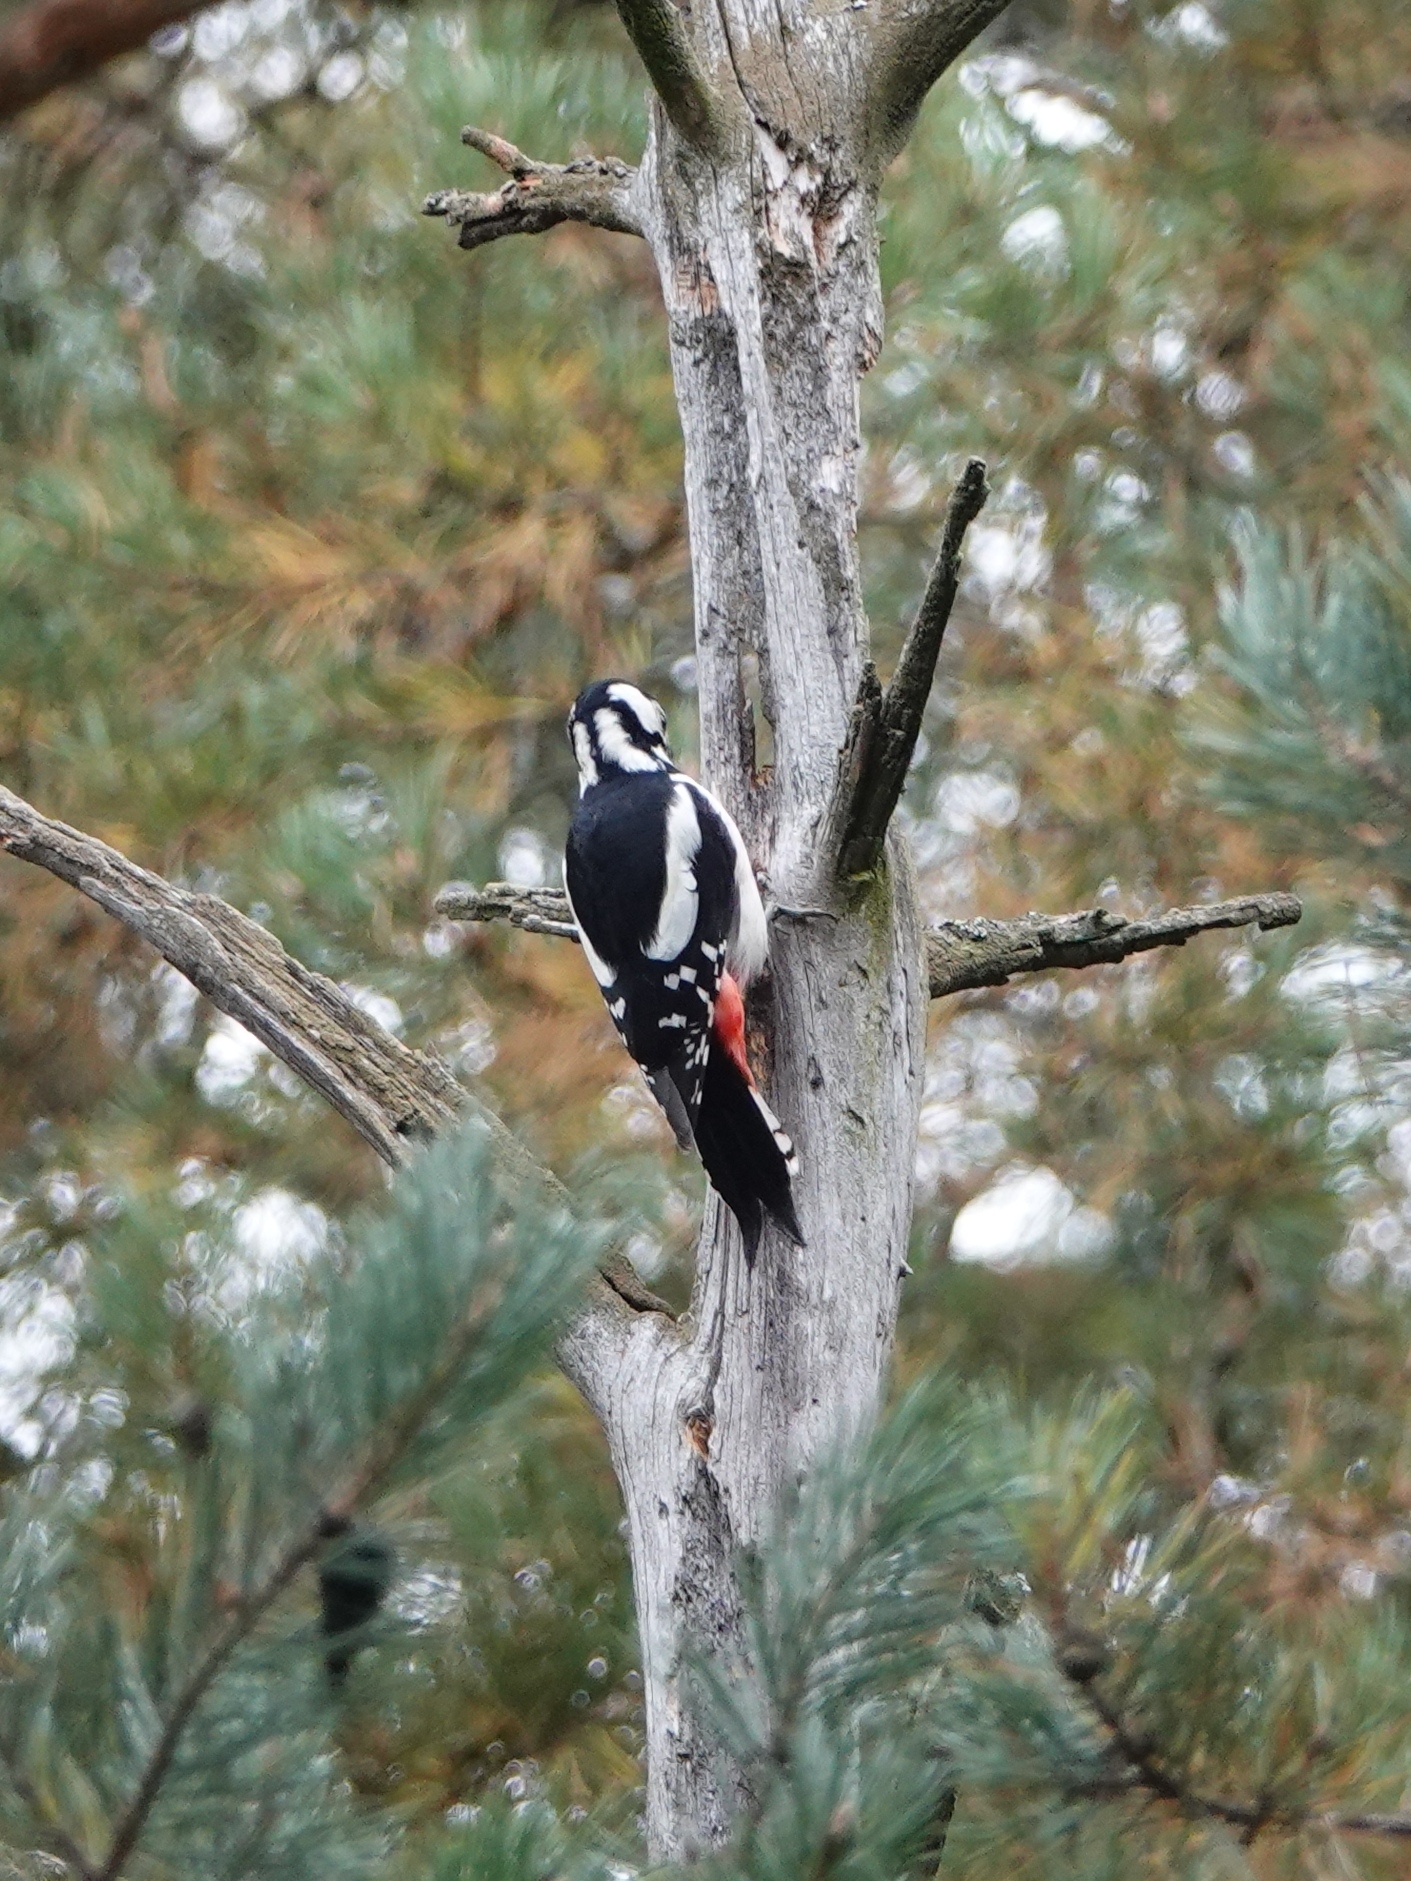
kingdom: Animalia
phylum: Chordata
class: Aves
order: Piciformes
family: Picidae
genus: Dendrocopos
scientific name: Dendrocopos major
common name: Great spotted woodpecker
